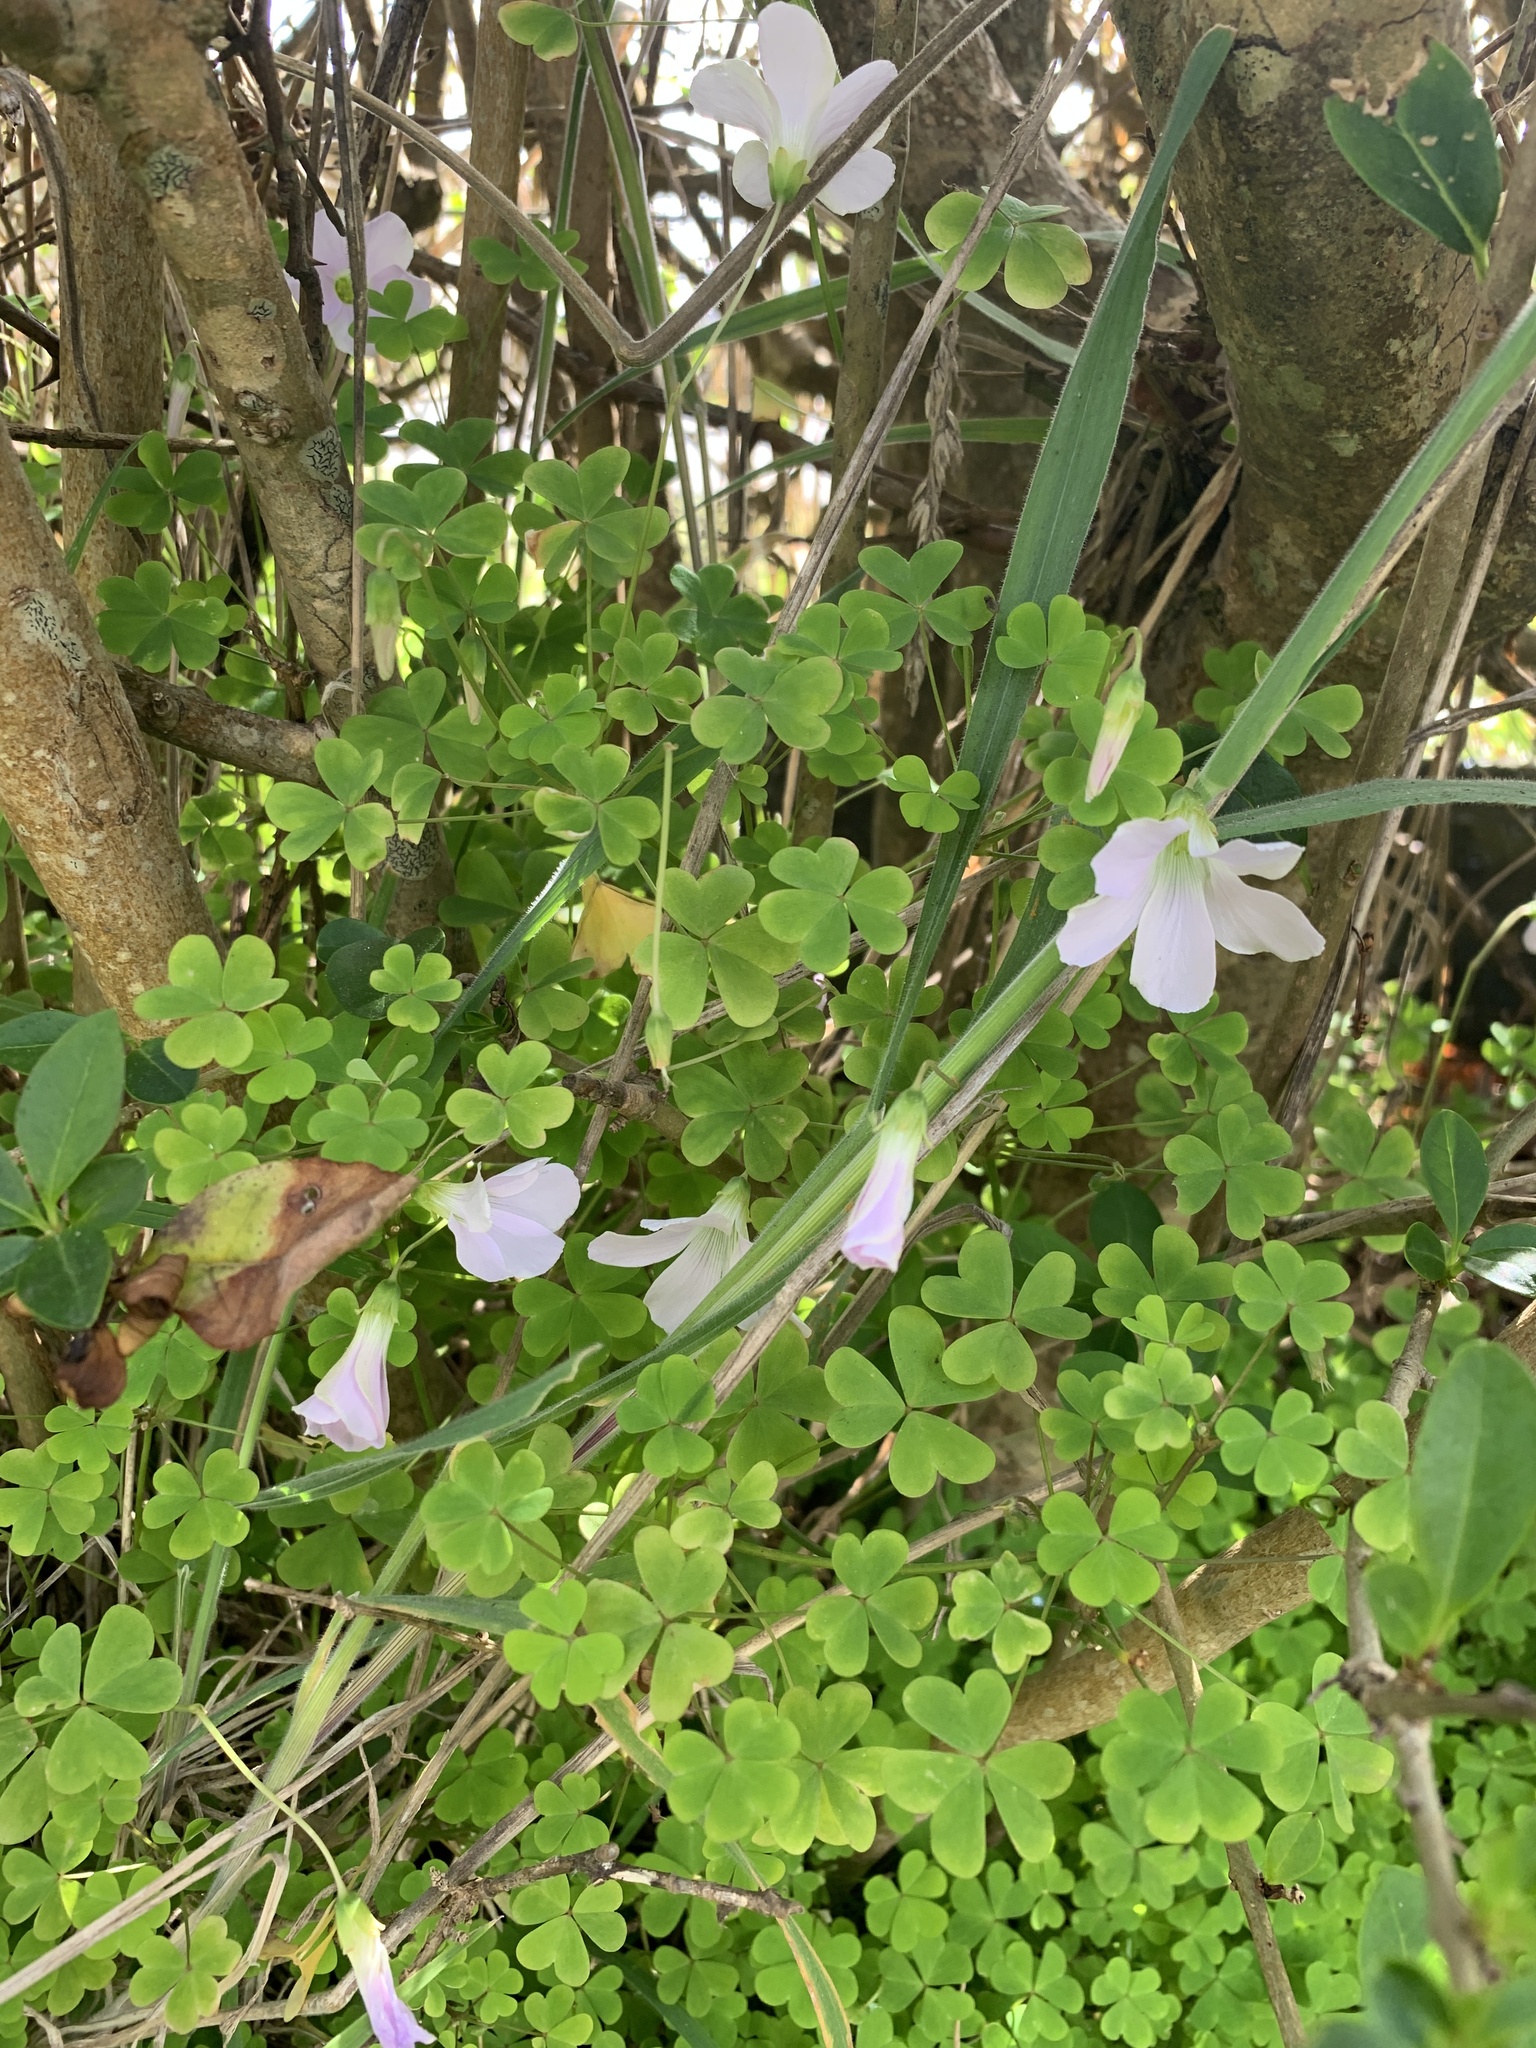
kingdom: Plantae
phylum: Tracheophyta
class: Magnoliopsida
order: Oxalidales
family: Oxalidaceae
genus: Oxalis
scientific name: Oxalis incarnata
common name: Pale pink-sorrel
